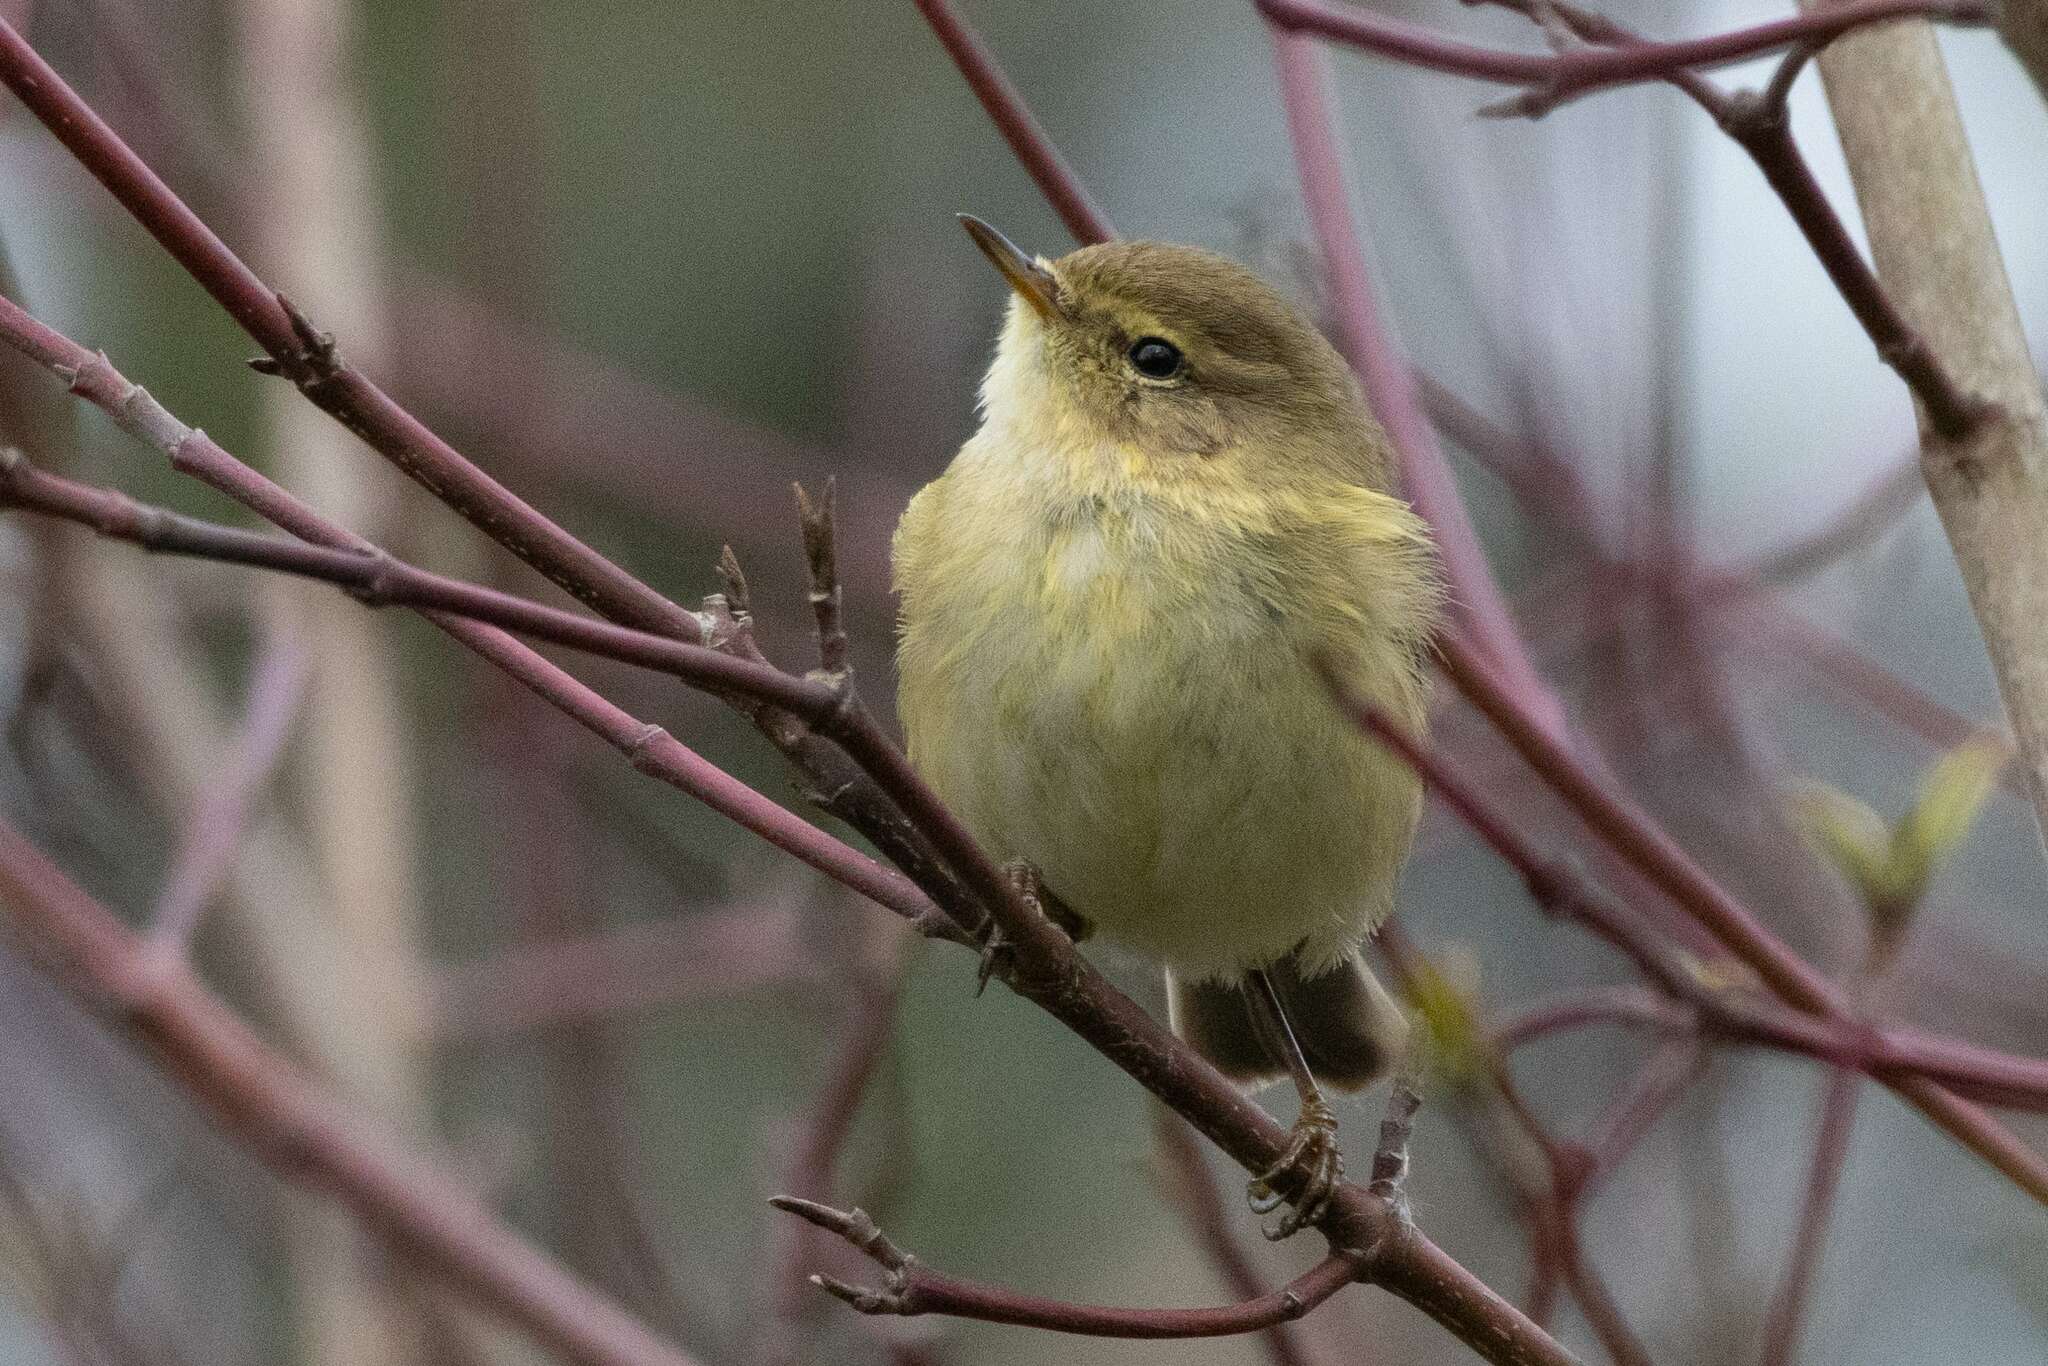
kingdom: Animalia
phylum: Chordata
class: Aves
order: Passeriformes
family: Phylloscopidae
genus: Phylloscopus
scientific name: Phylloscopus collybita
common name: Common chiffchaff
